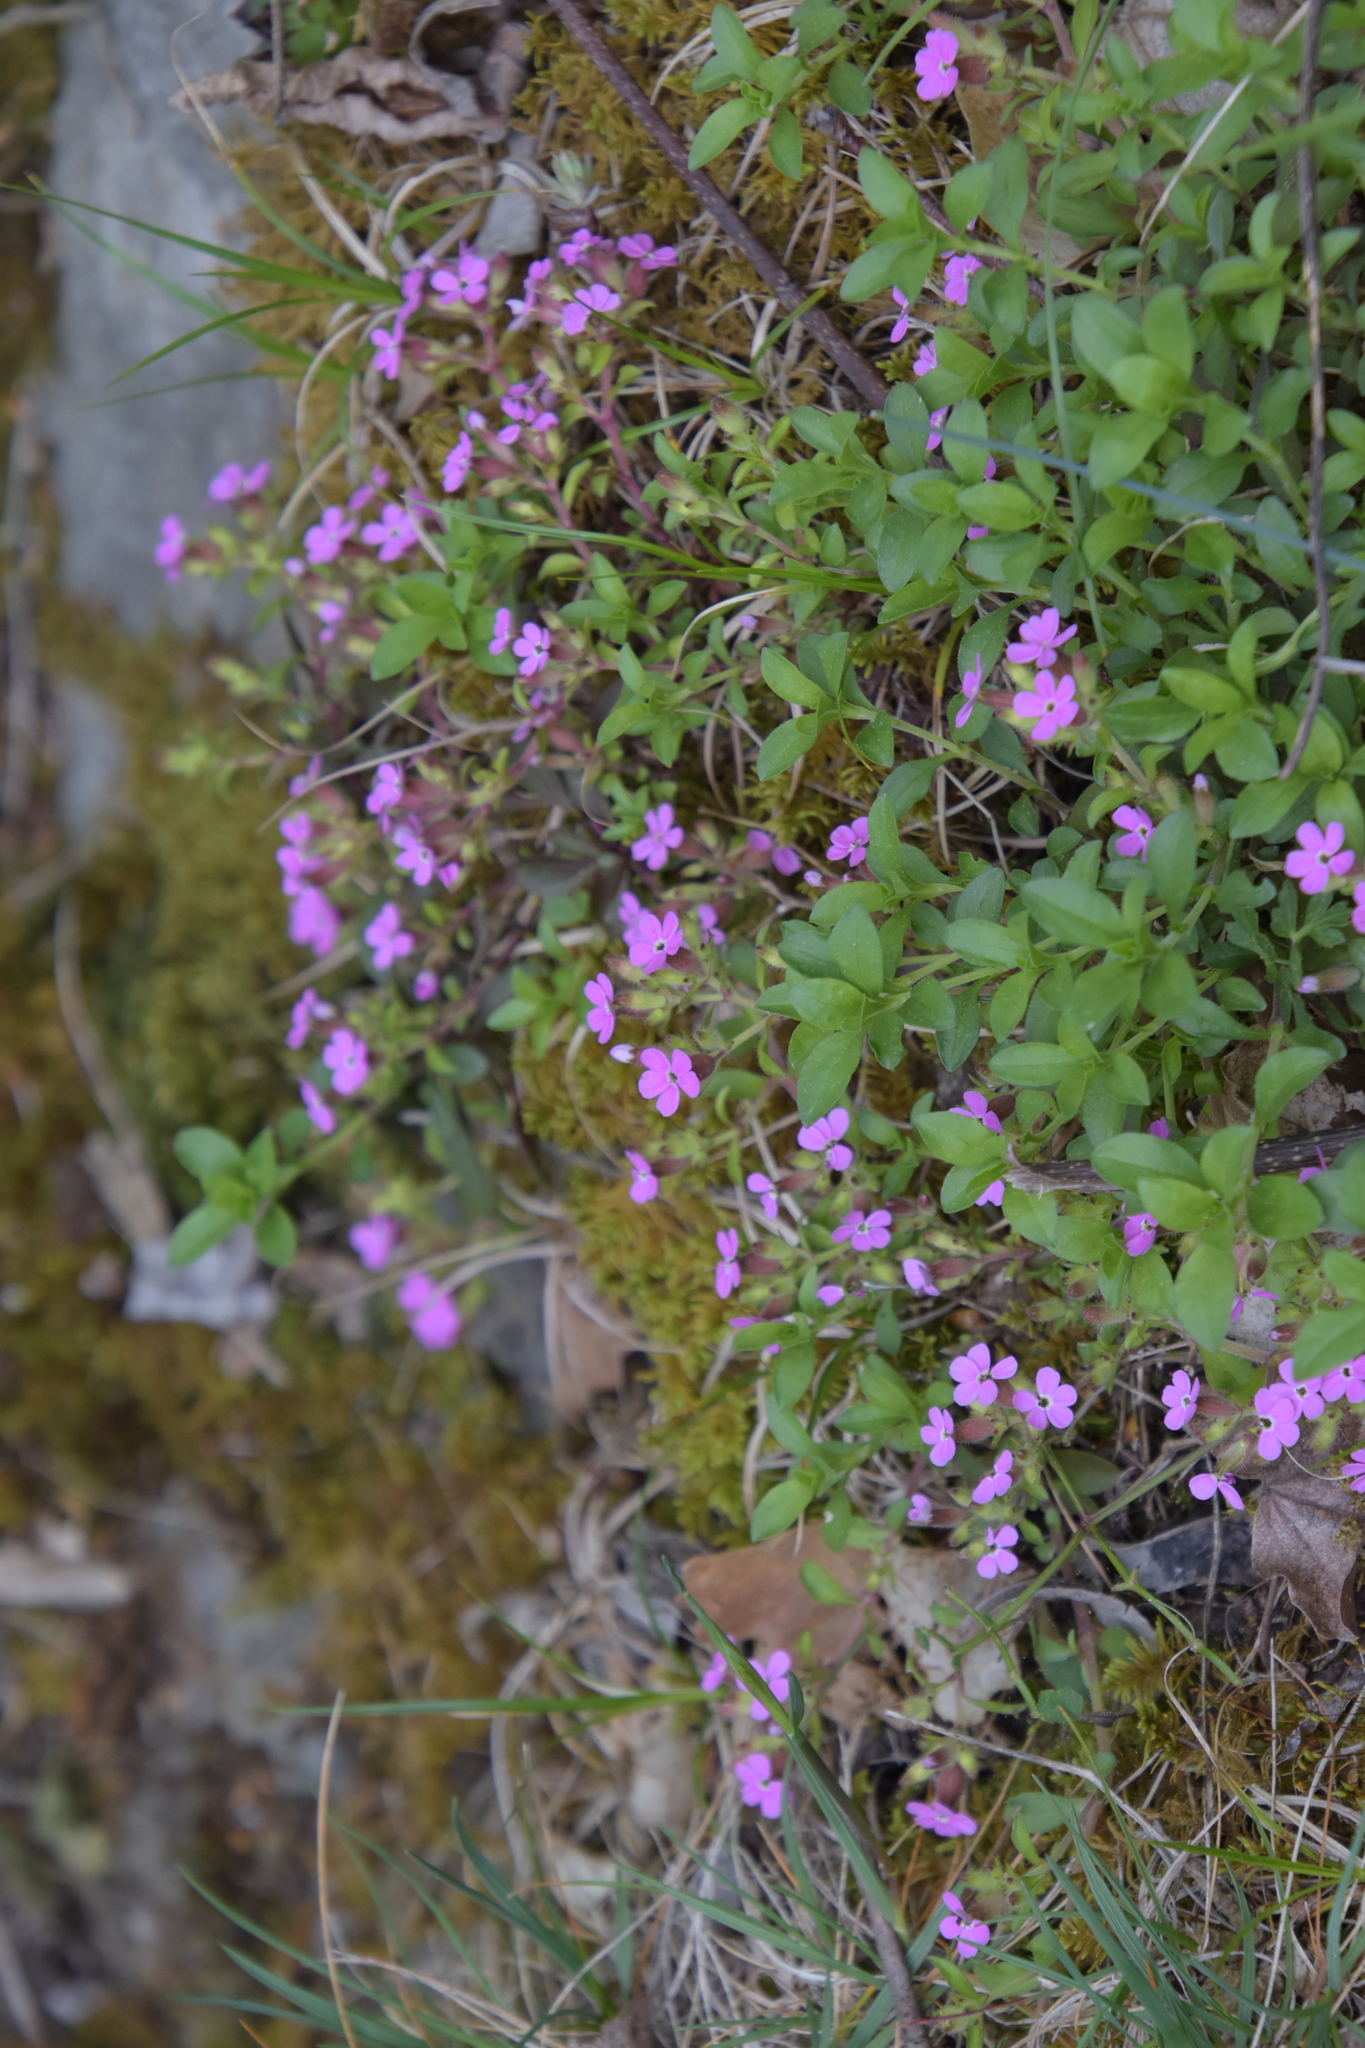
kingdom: Plantae
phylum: Tracheophyta
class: Magnoliopsida
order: Caryophyllales
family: Caryophyllaceae
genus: Saponaria
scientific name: Saponaria ocymoides
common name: Rock soapwort
